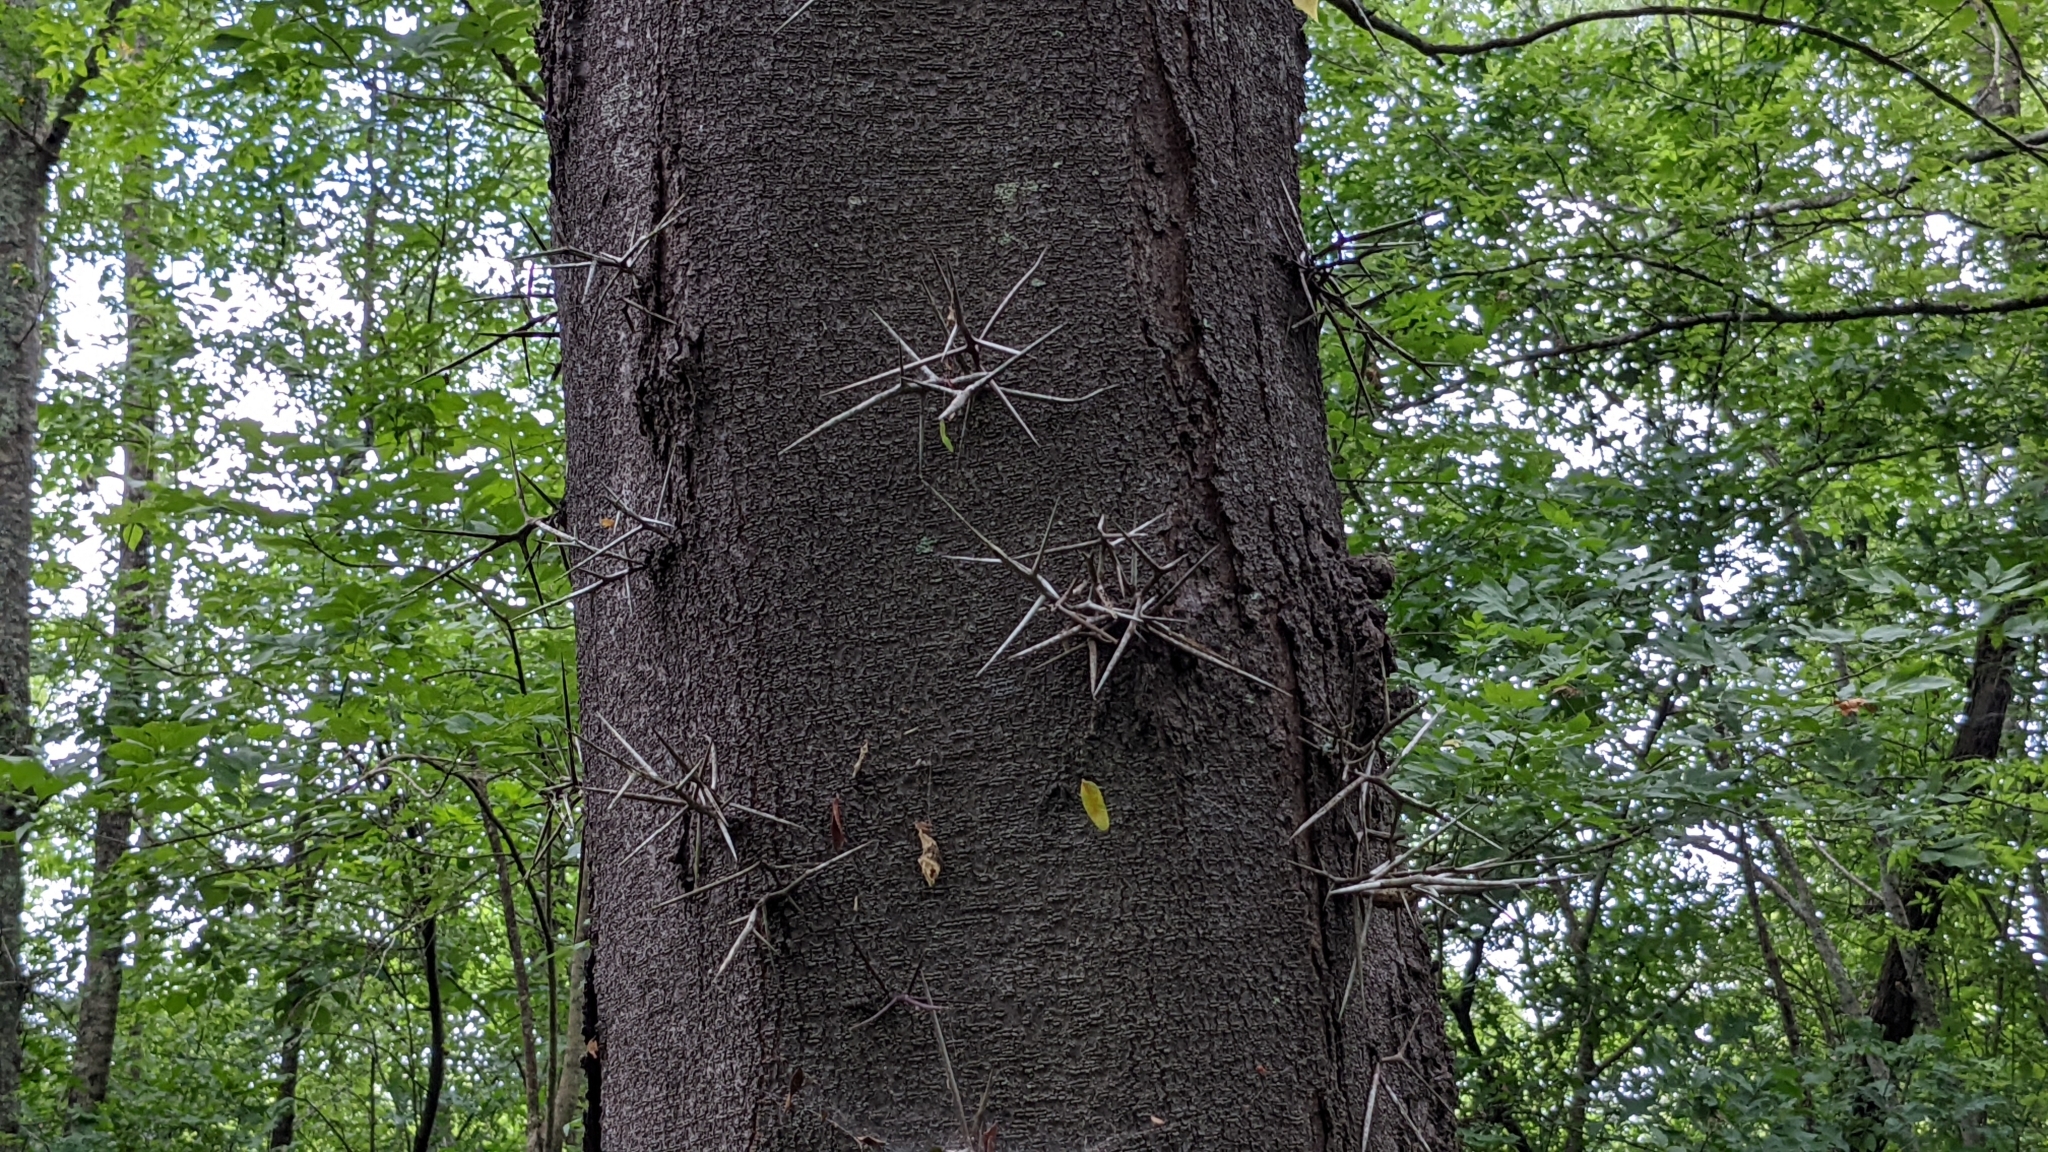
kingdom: Plantae
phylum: Tracheophyta
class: Magnoliopsida
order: Fabales
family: Fabaceae
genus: Gleditsia
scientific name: Gleditsia triacanthos
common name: Common honeylocust
